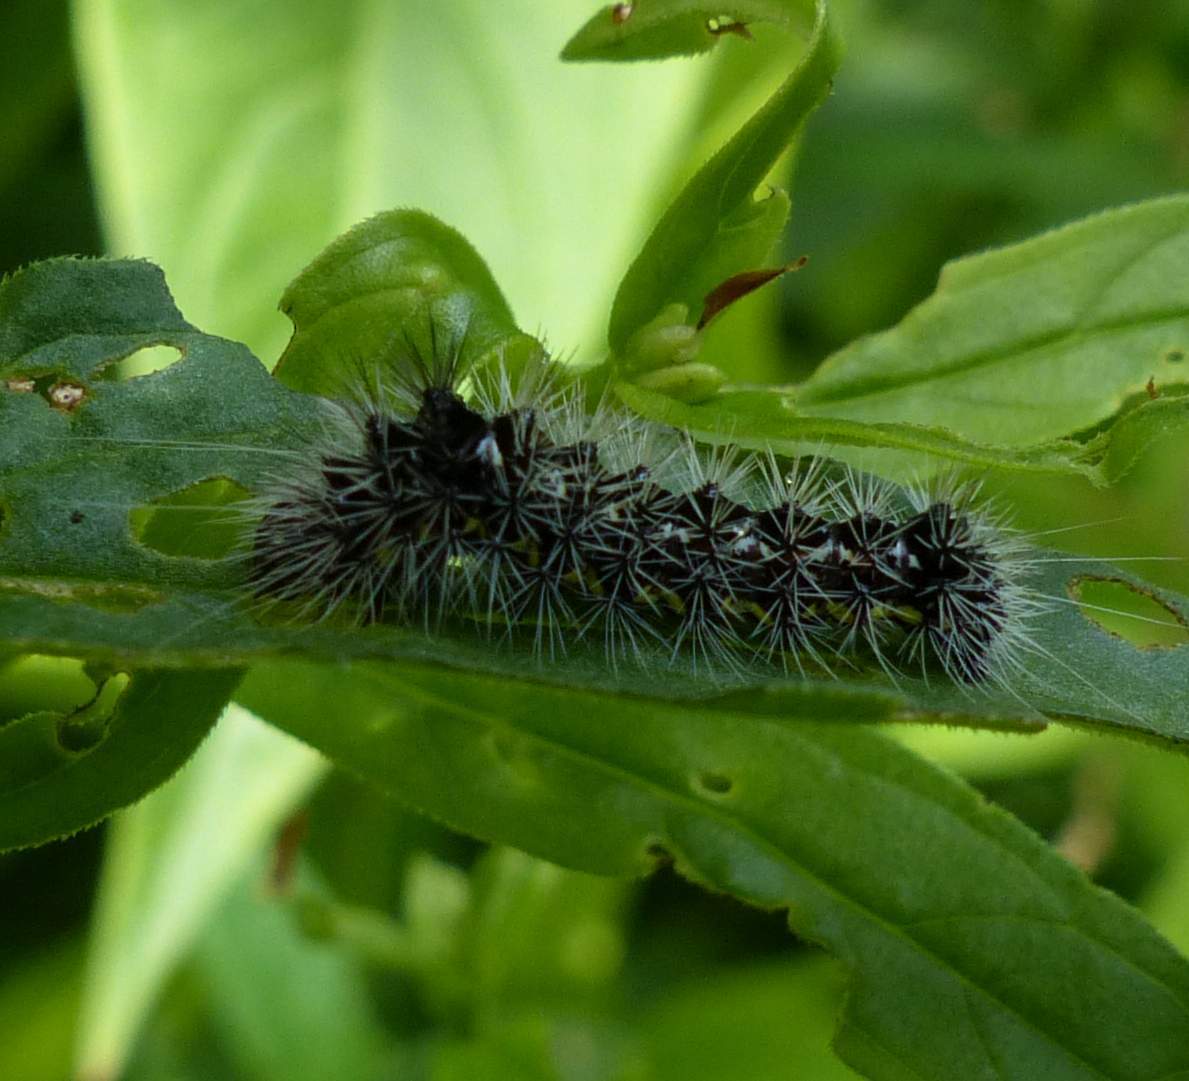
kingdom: Animalia
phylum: Arthropoda
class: Insecta
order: Lepidoptera
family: Noctuidae
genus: Acronicta
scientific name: Acronicta oblinita
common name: Smeared dagger
